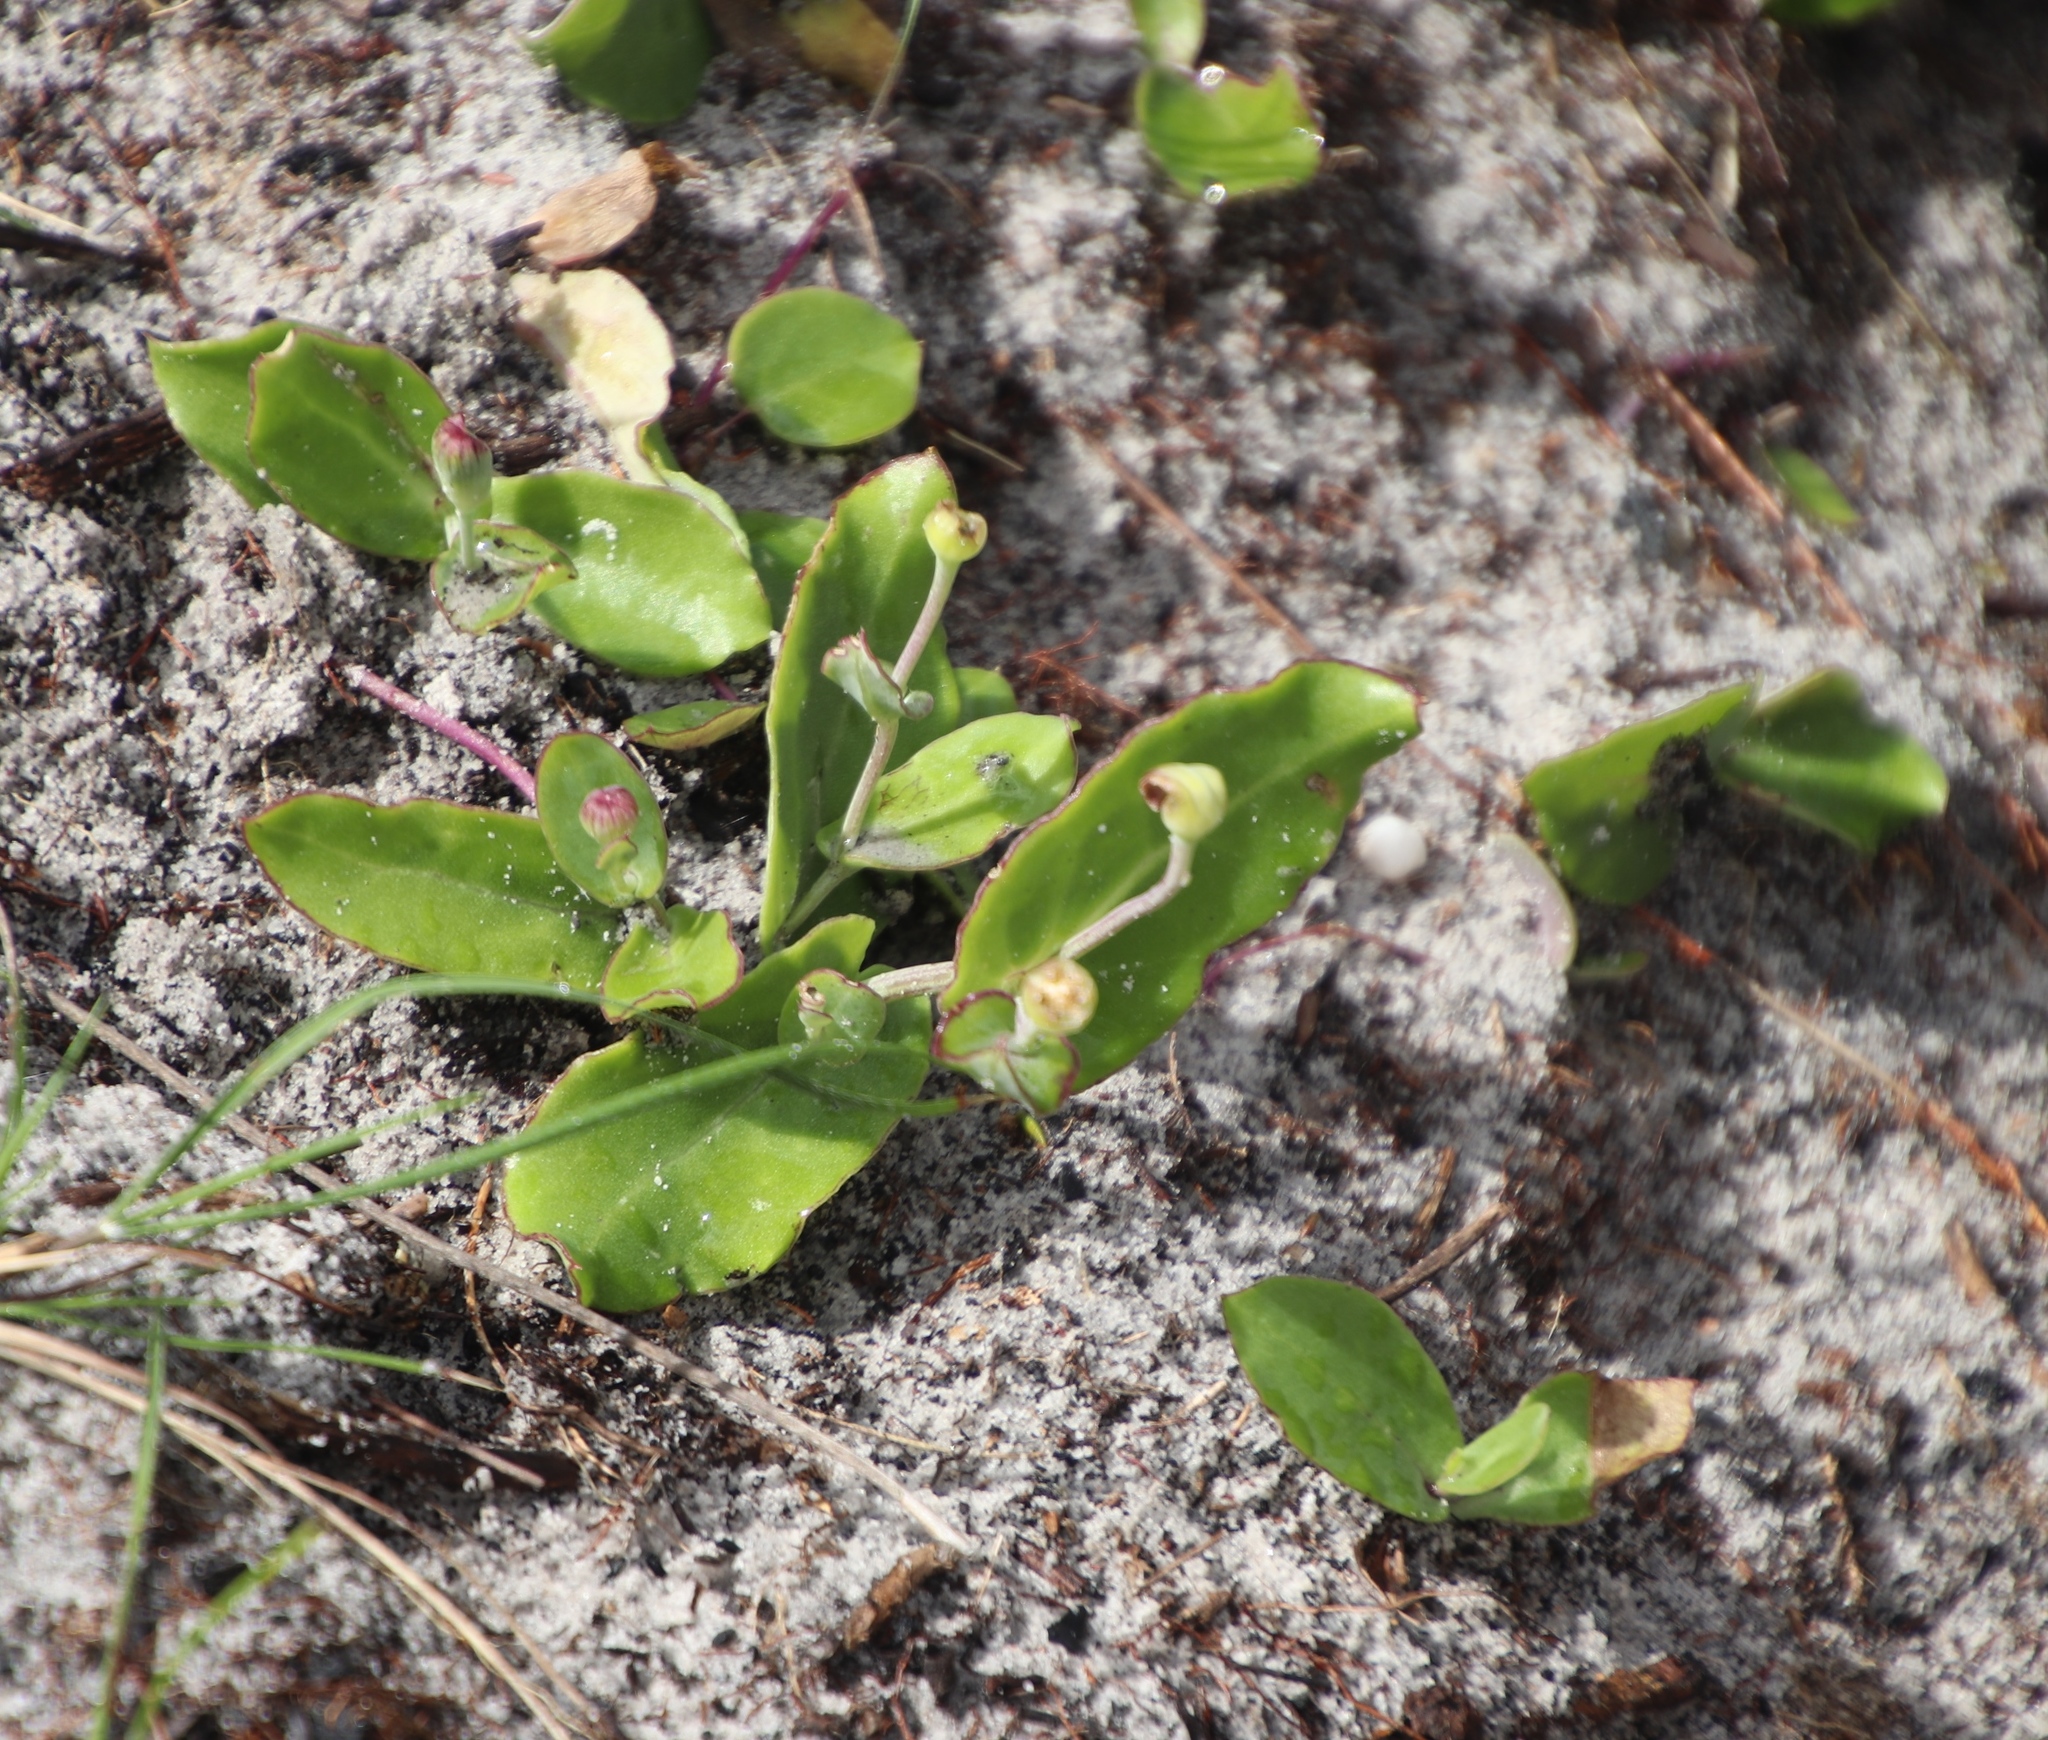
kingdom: Plantae
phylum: Tracheophyta
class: Magnoliopsida
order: Asterales
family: Asteraceae
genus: Othonna
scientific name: Othonna undulosa
